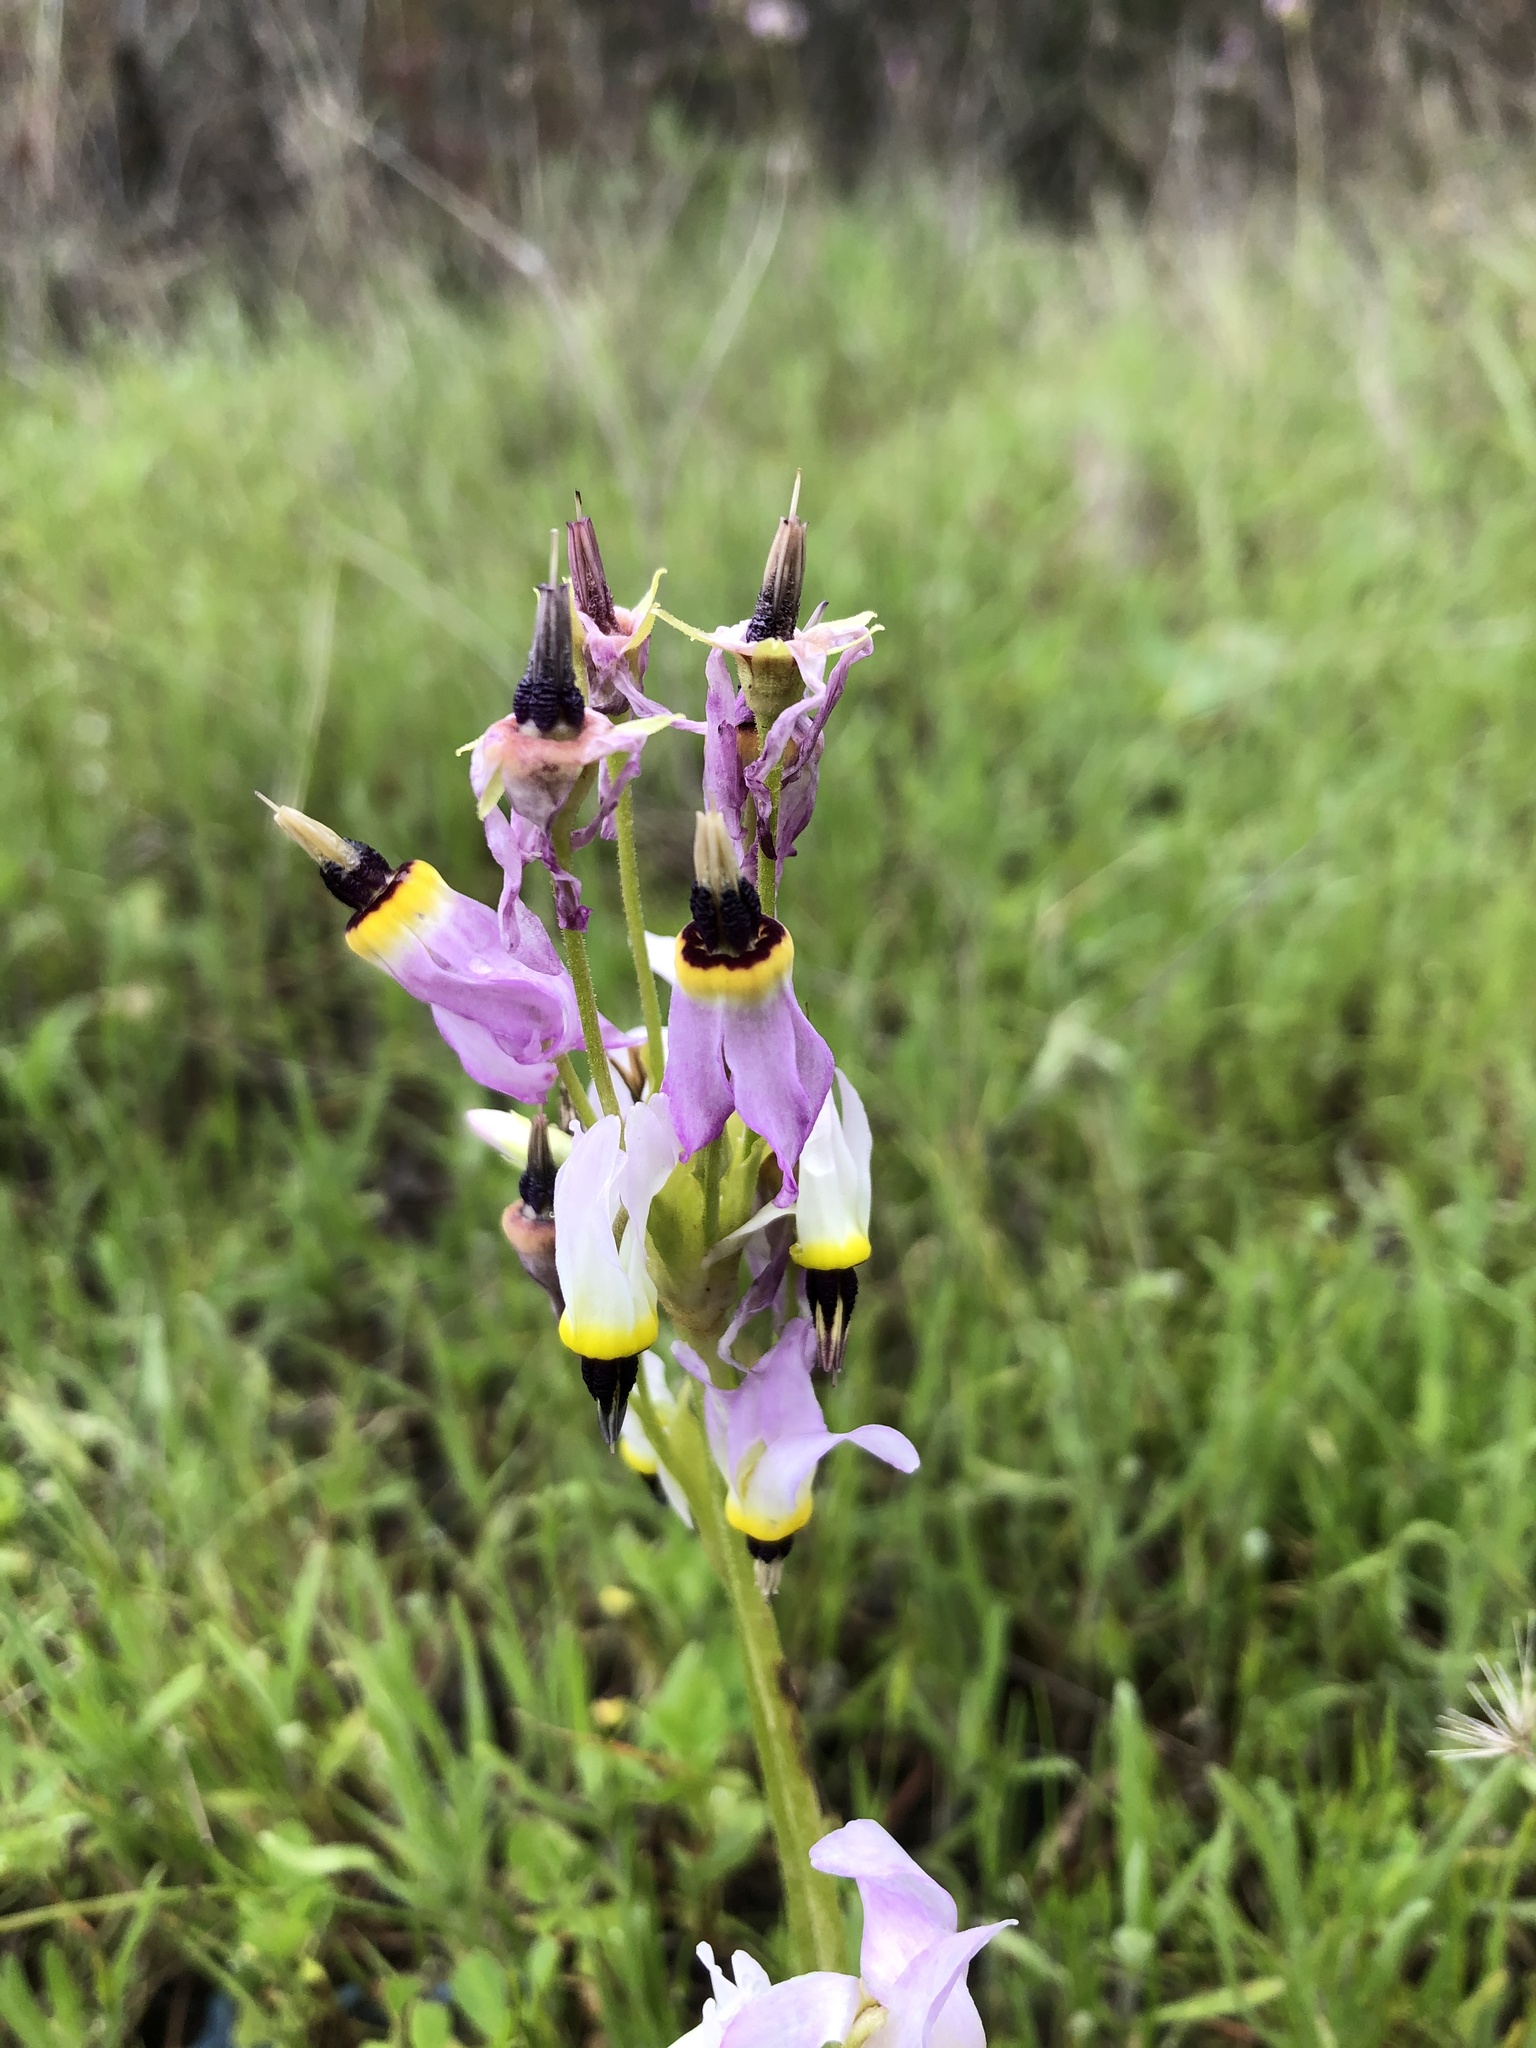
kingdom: Plantae
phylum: Tracheophyta
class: Magnoliopsida
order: Ericales
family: Primulaceae
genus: Dodecatheon
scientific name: Dodecatheon clevelandii
